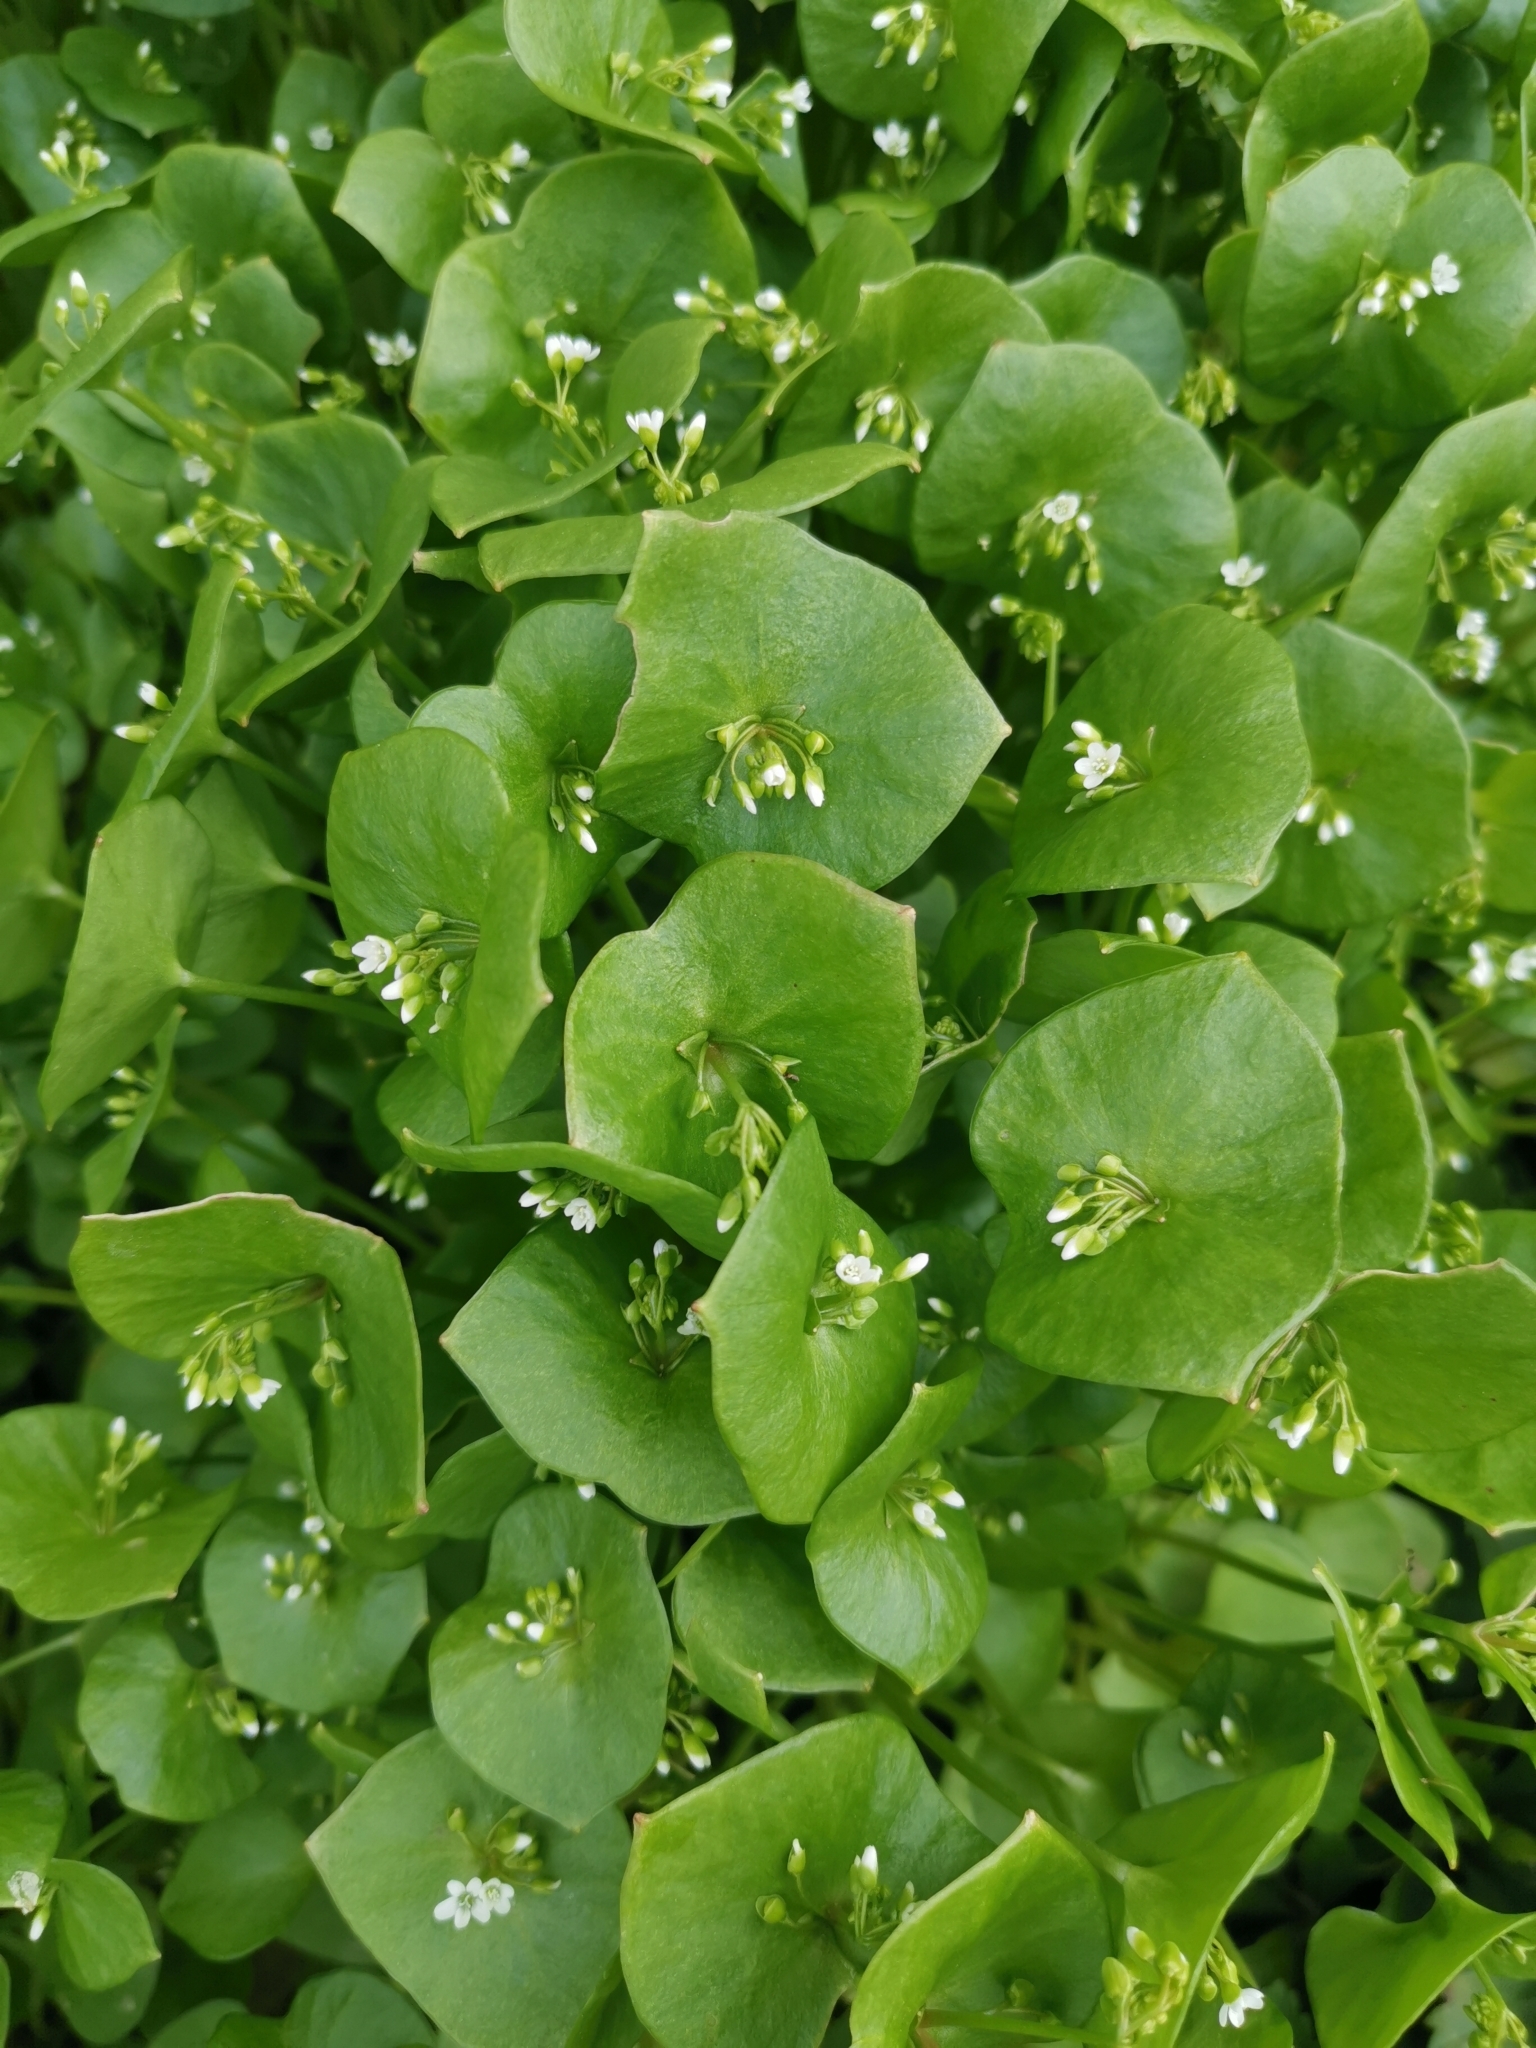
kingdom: Plantae
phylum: Tracheophyta
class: Magnoliopsida
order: Caryophyllales
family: Montiaceae
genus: Claytonia
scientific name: Claytonia perfoliata
